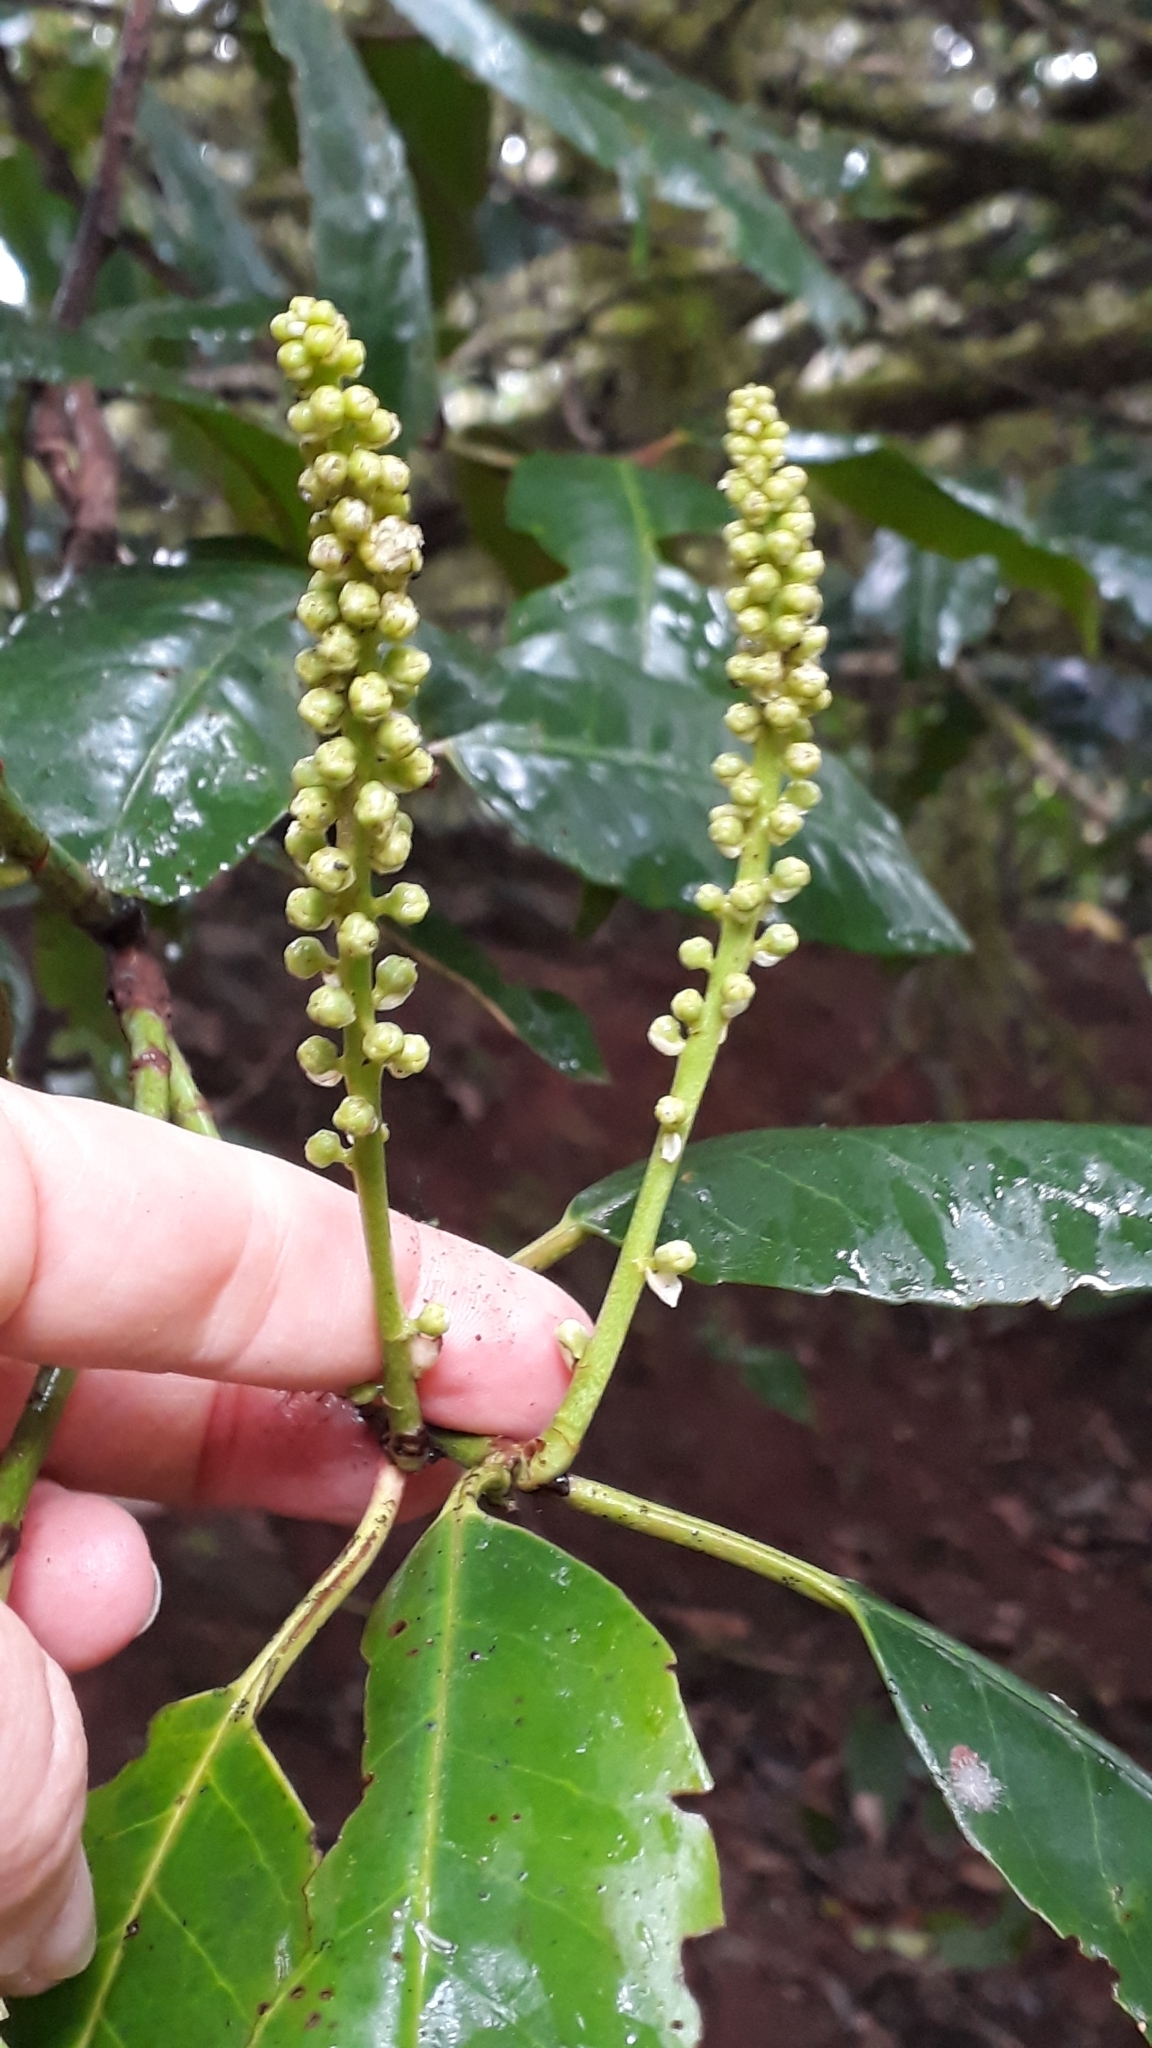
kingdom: Plantae
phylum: Tracheophyta
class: Magnoliopsida
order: Rosales
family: Rosaceae
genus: Prunus
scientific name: Prunus hixa
